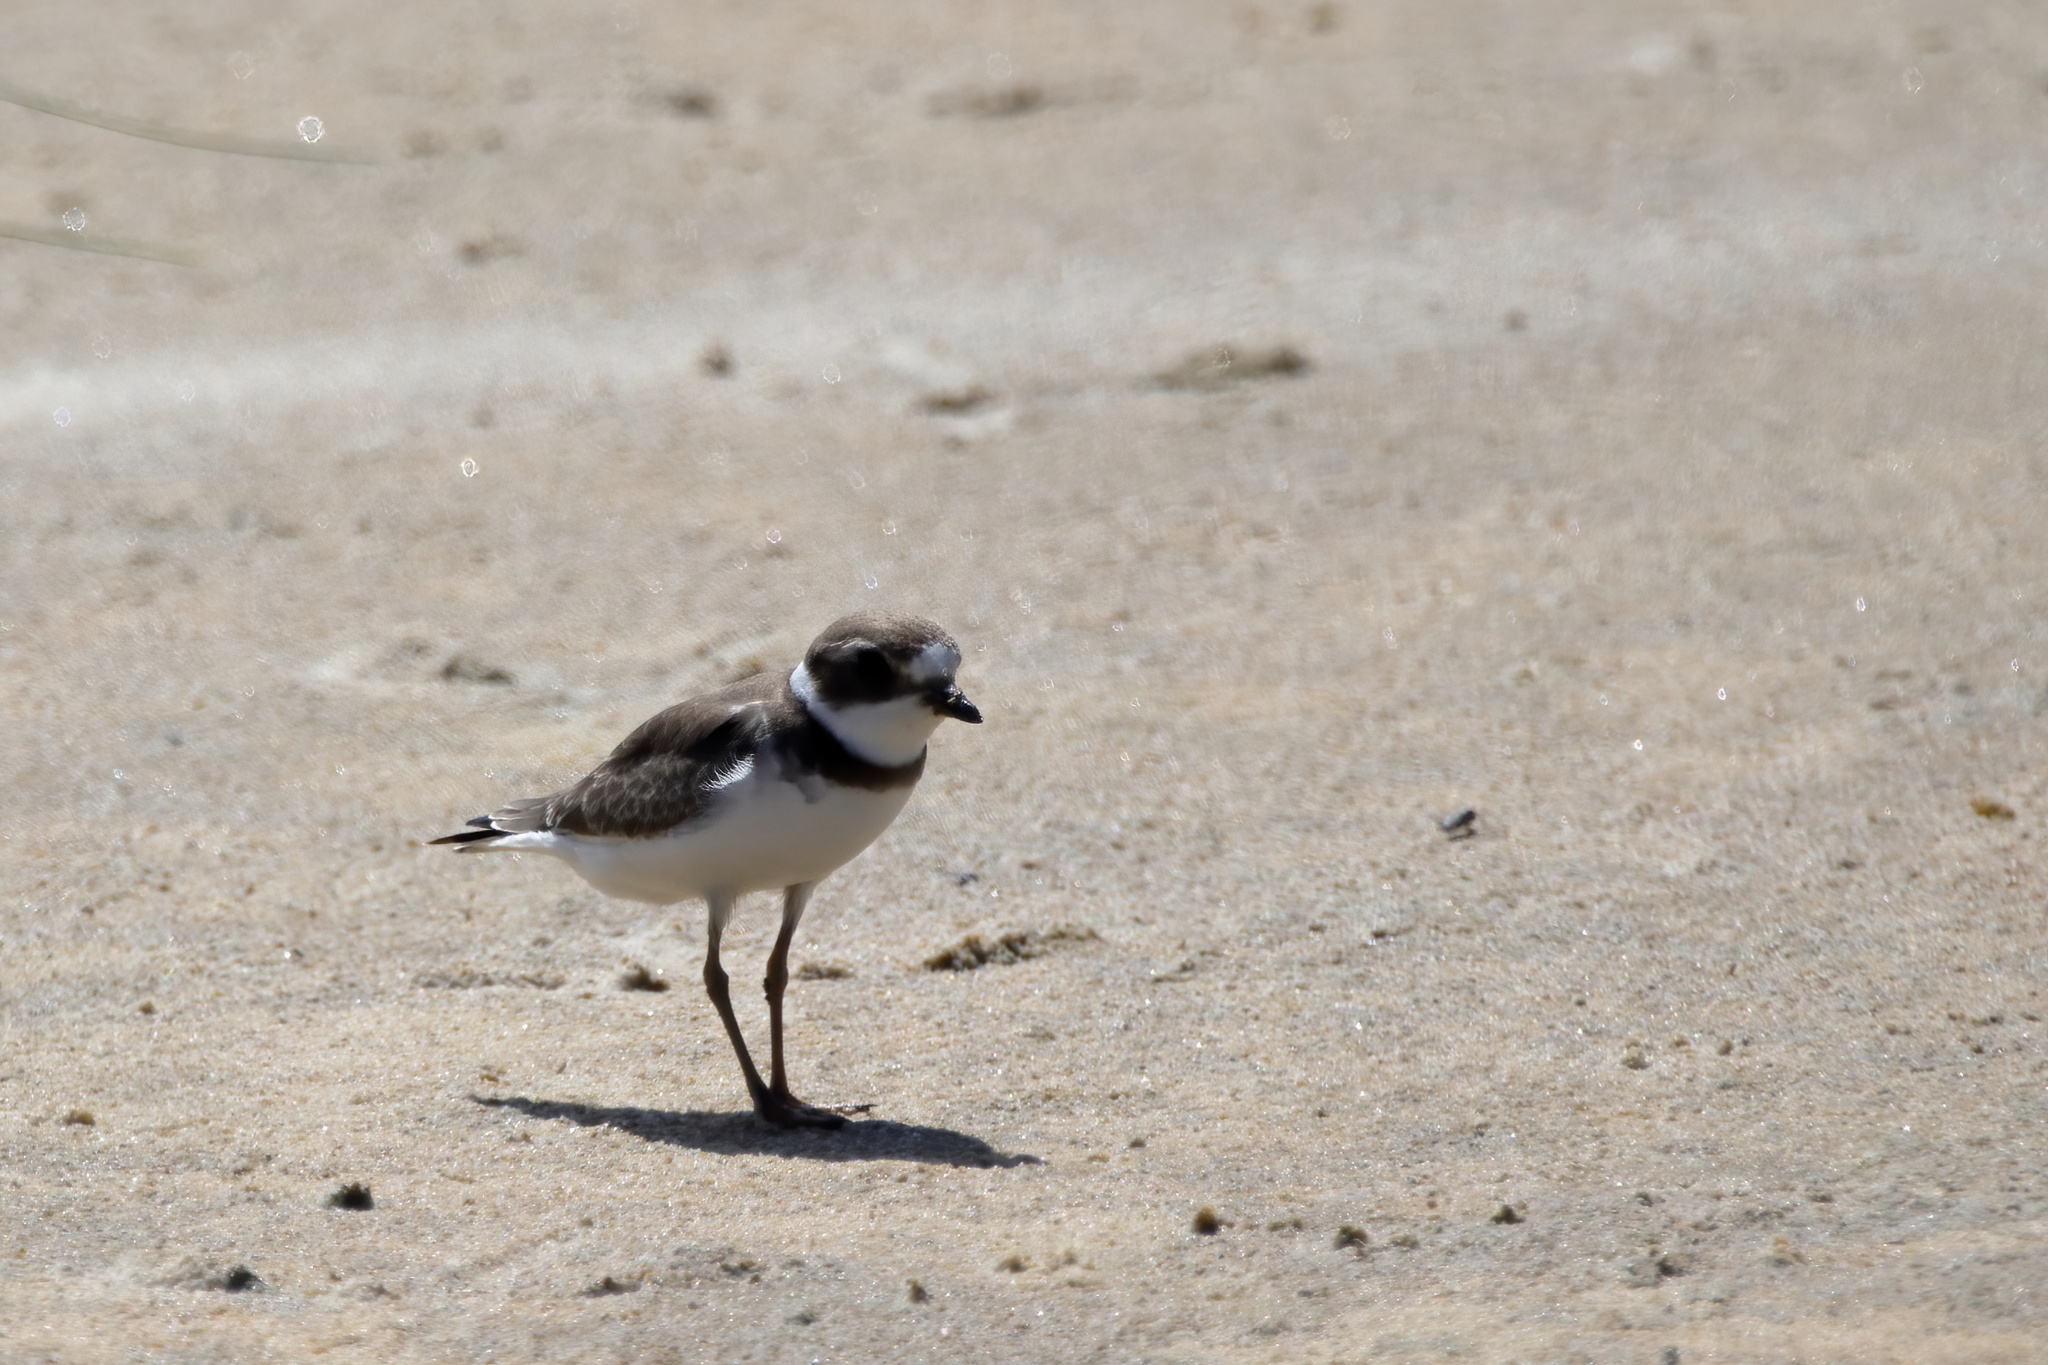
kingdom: Animalia
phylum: Chordata
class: Aves
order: Charadriiformes
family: Charadriidae
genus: Charadrius
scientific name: Charadrius semipalmatus
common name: Semipalmated plover
